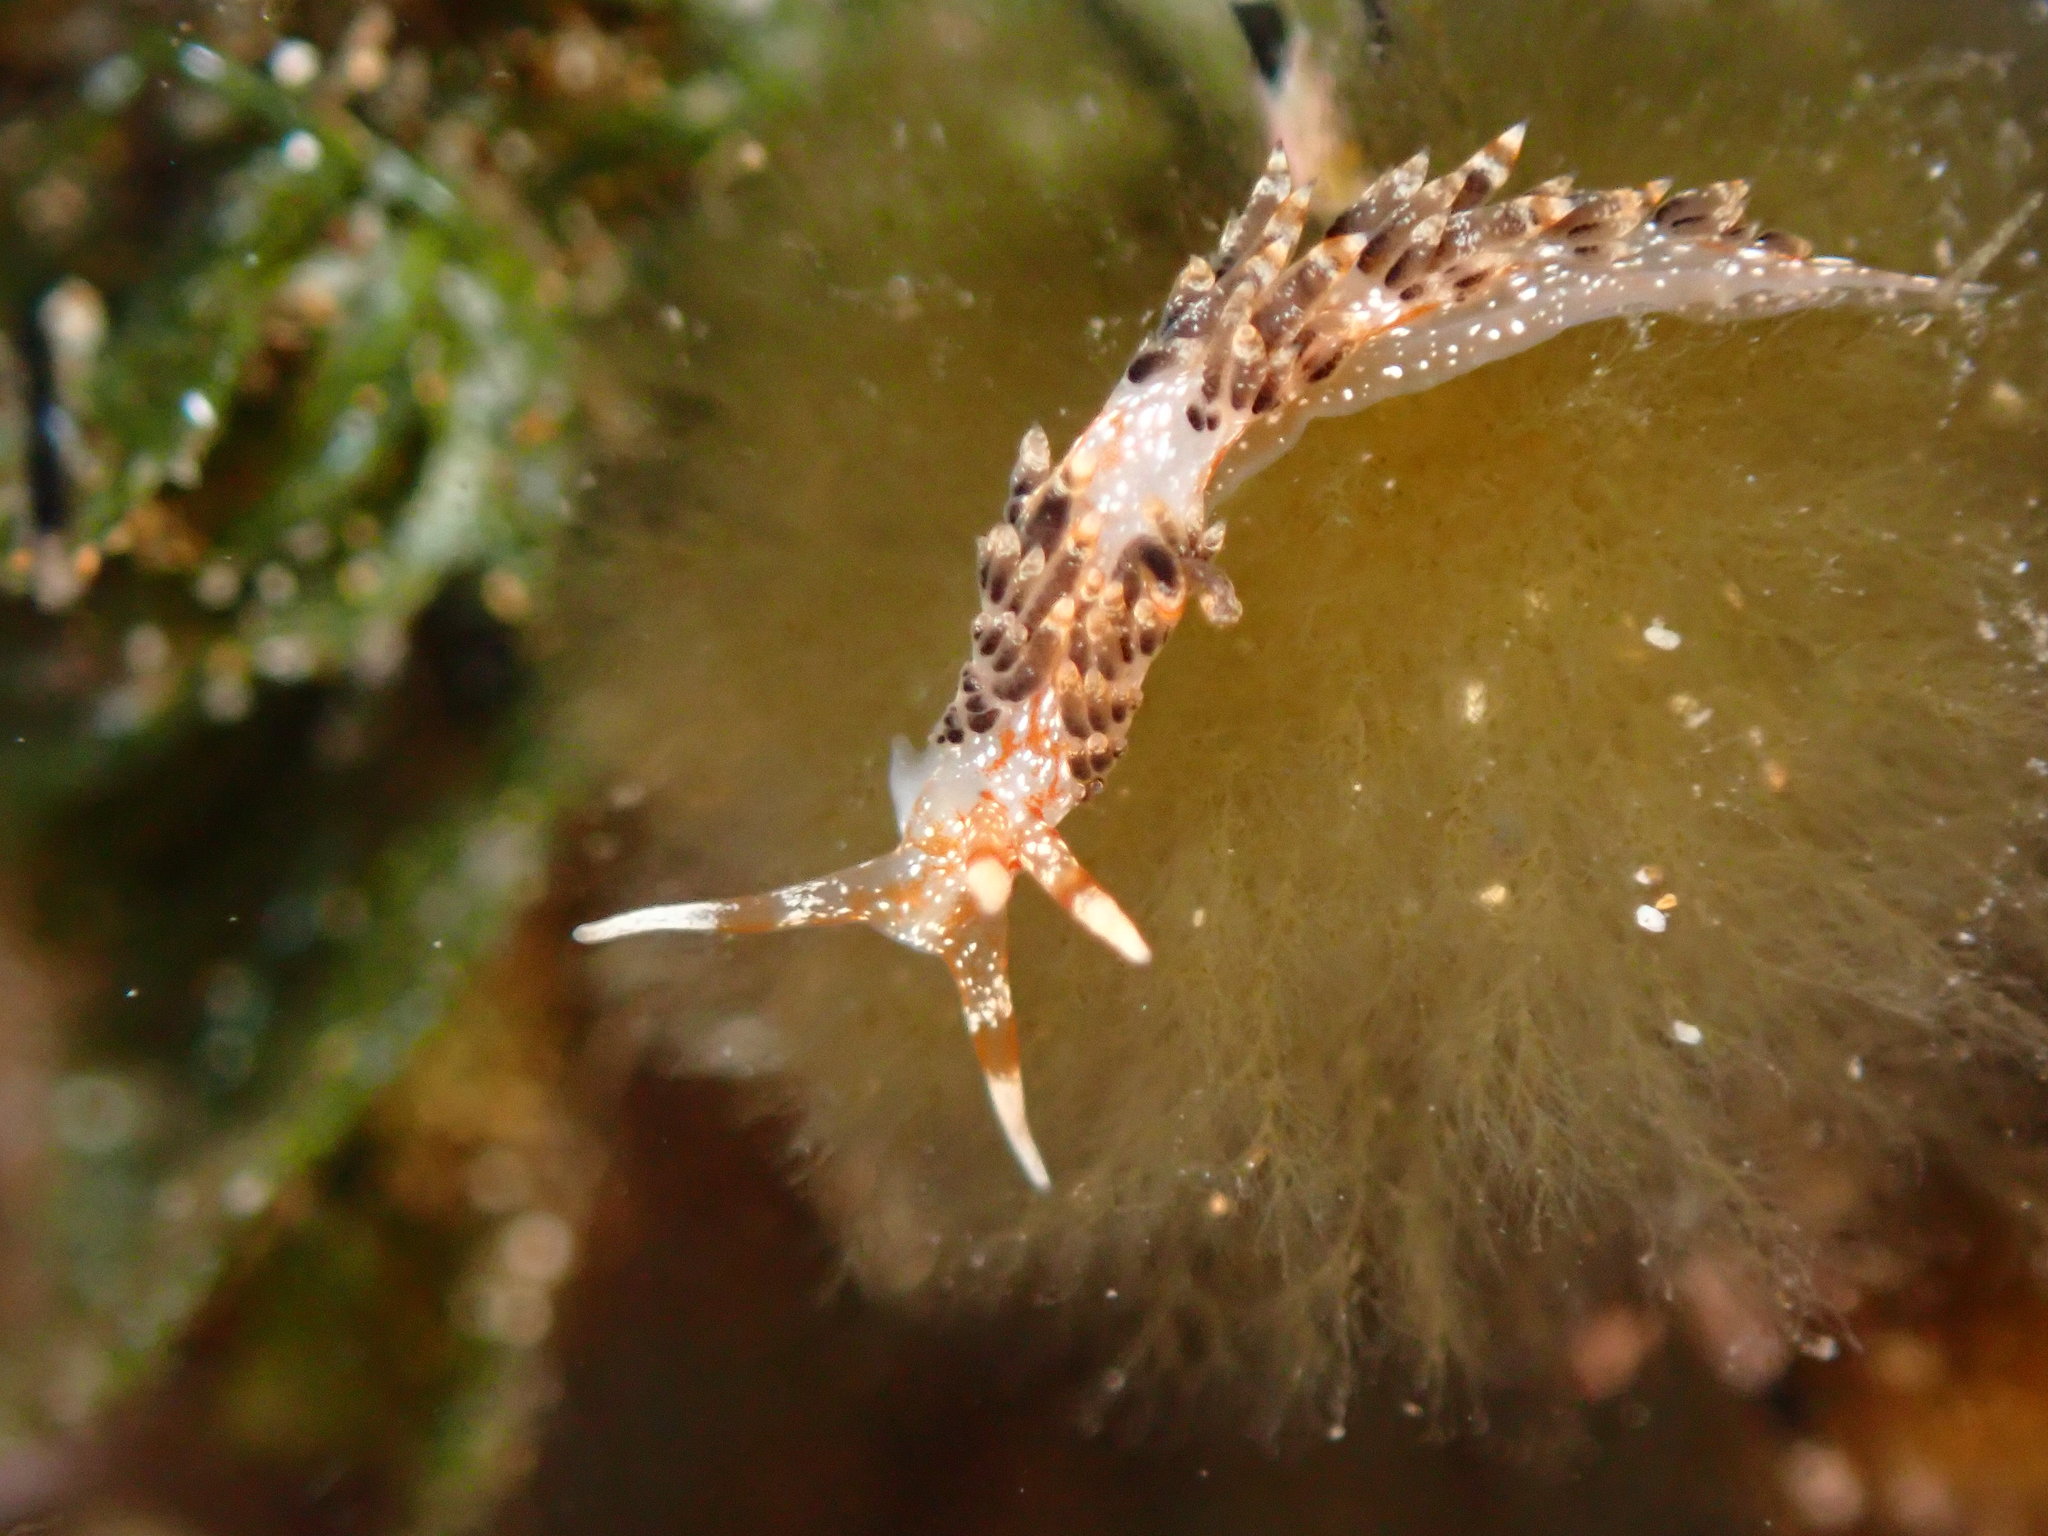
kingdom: Animalia
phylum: Mollusca
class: Gastropoda
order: Nudibranchia
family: Facelinidae
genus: Phidiana
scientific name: Phidiana semidecora
